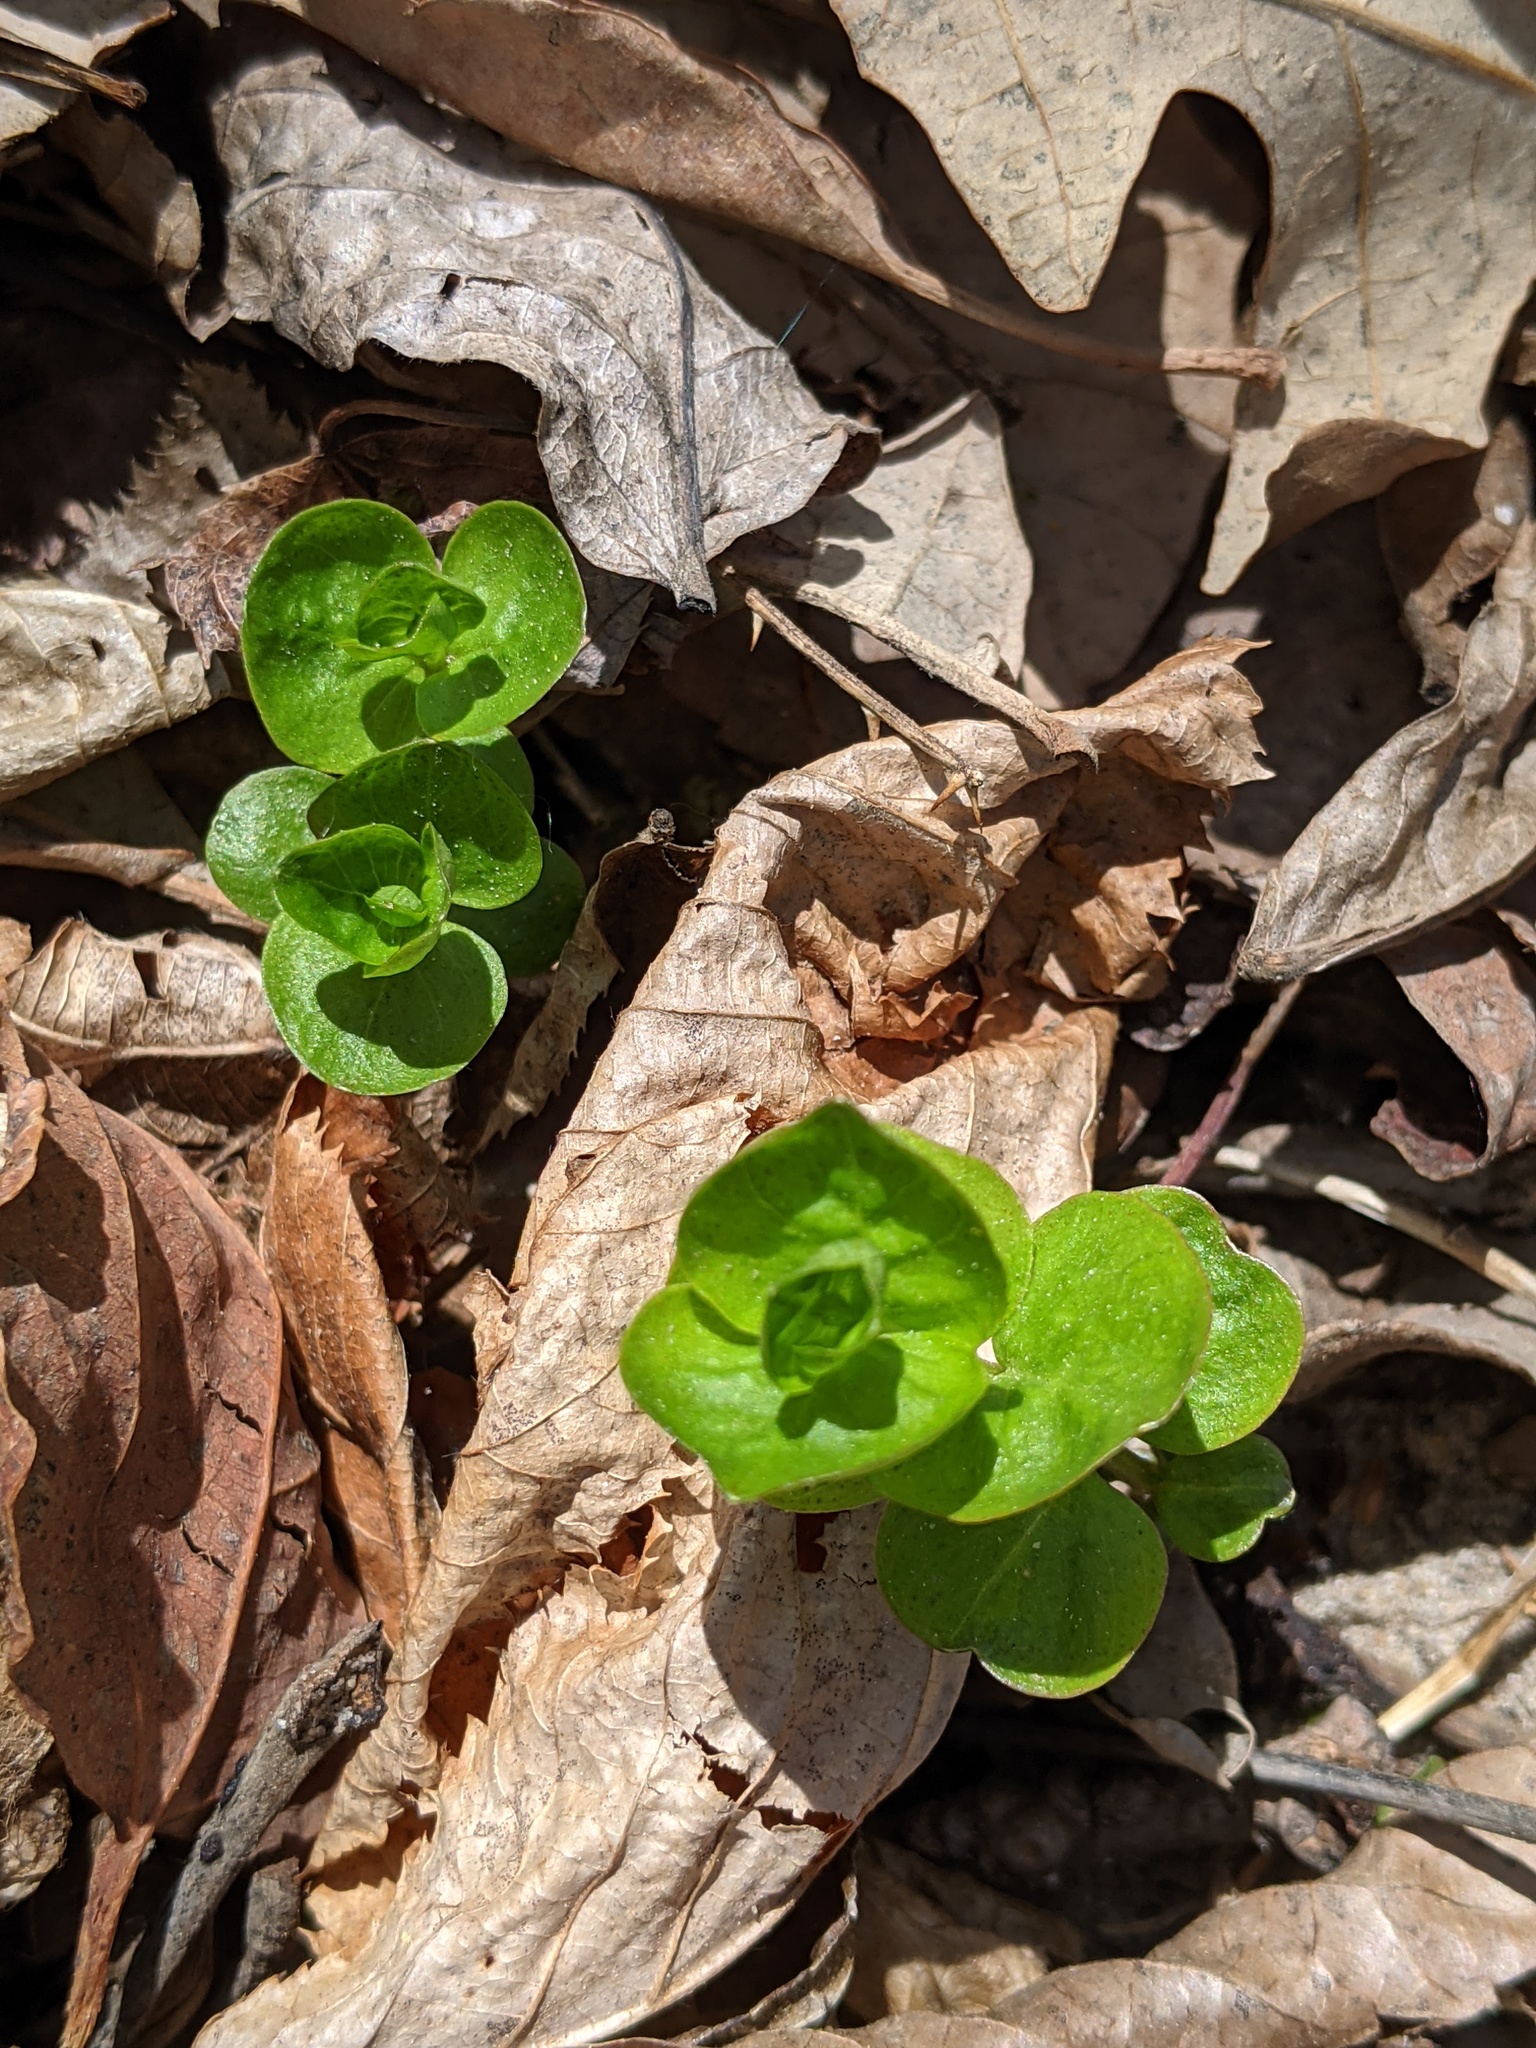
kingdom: Plantae
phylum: Tracheophyta
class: Magnoliopsida
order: Ericales
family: Primulaceae
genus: Lysimachia
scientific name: Lysimachia nummularia
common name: Moneywort
